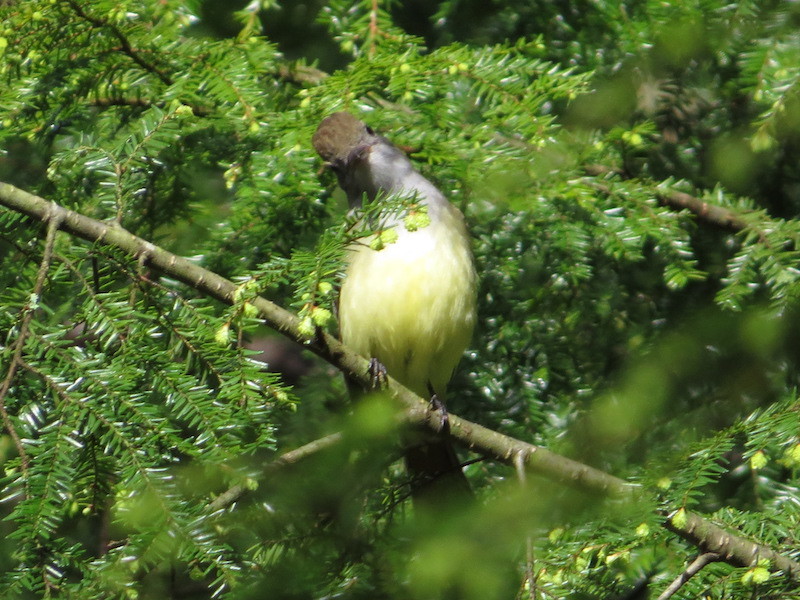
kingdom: Animalia
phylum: Chordata
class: Aves
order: Passeriformes
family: Tyrannidae
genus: Myiarchus
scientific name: Myiarchus crinitus
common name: Great crested flycatcher
